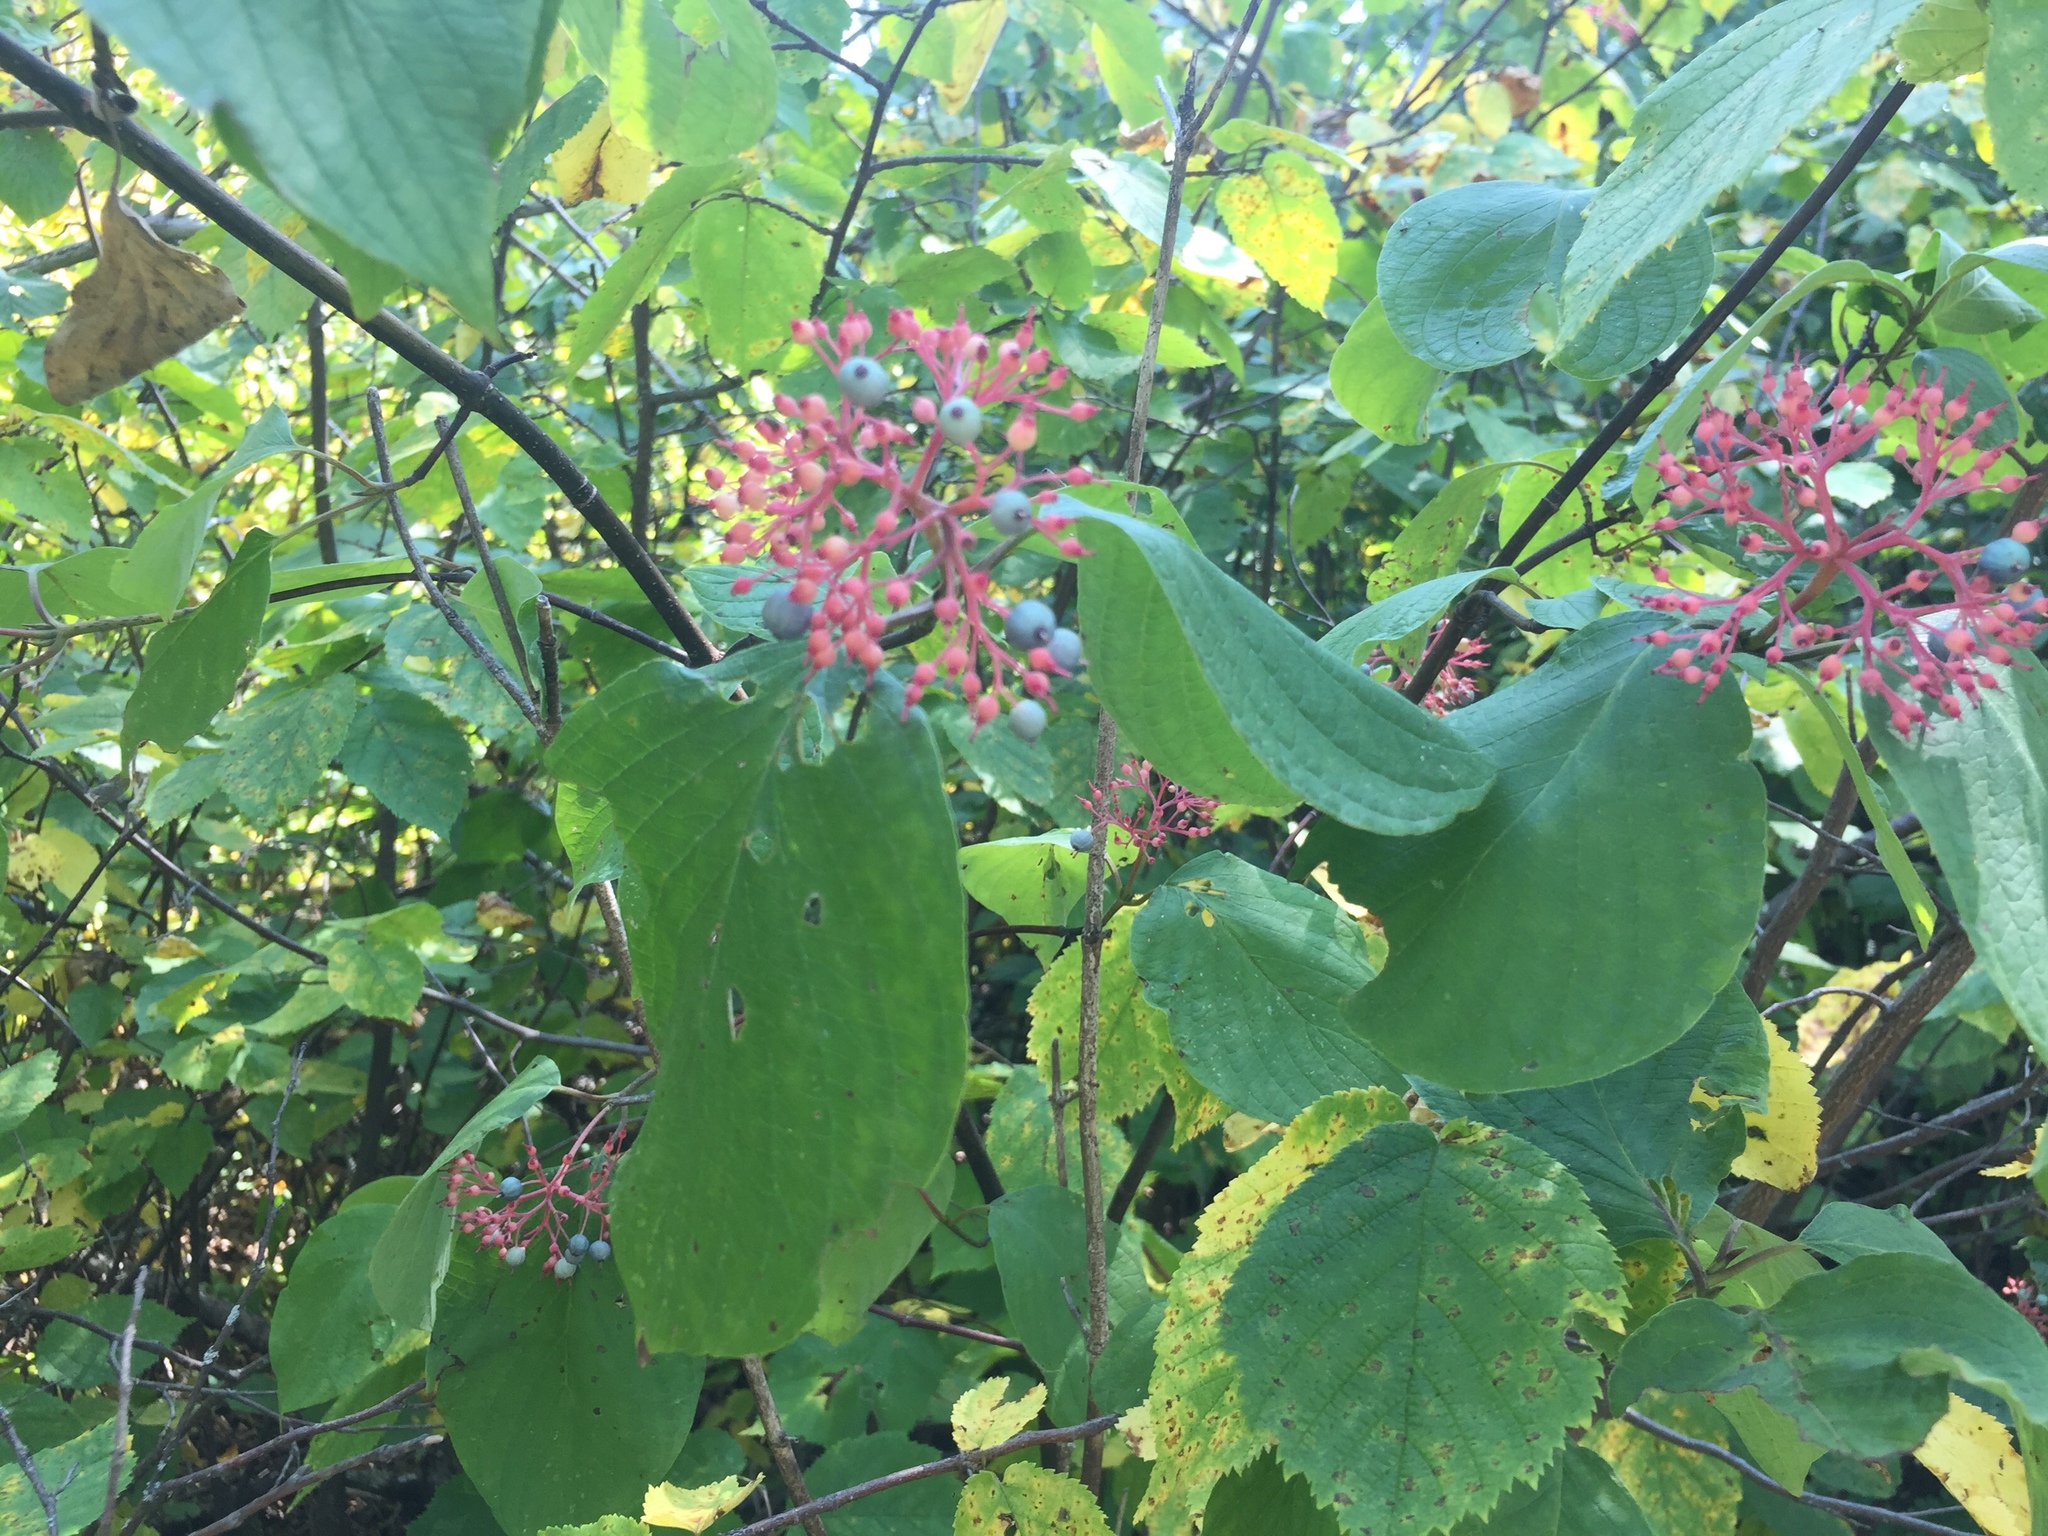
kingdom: Plantae
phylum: Tracheophyta
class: Magnoliopsida
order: Cornales
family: Cornaceae
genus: Cornus
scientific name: Cornus rugosa
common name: Round-leaf dogwood
